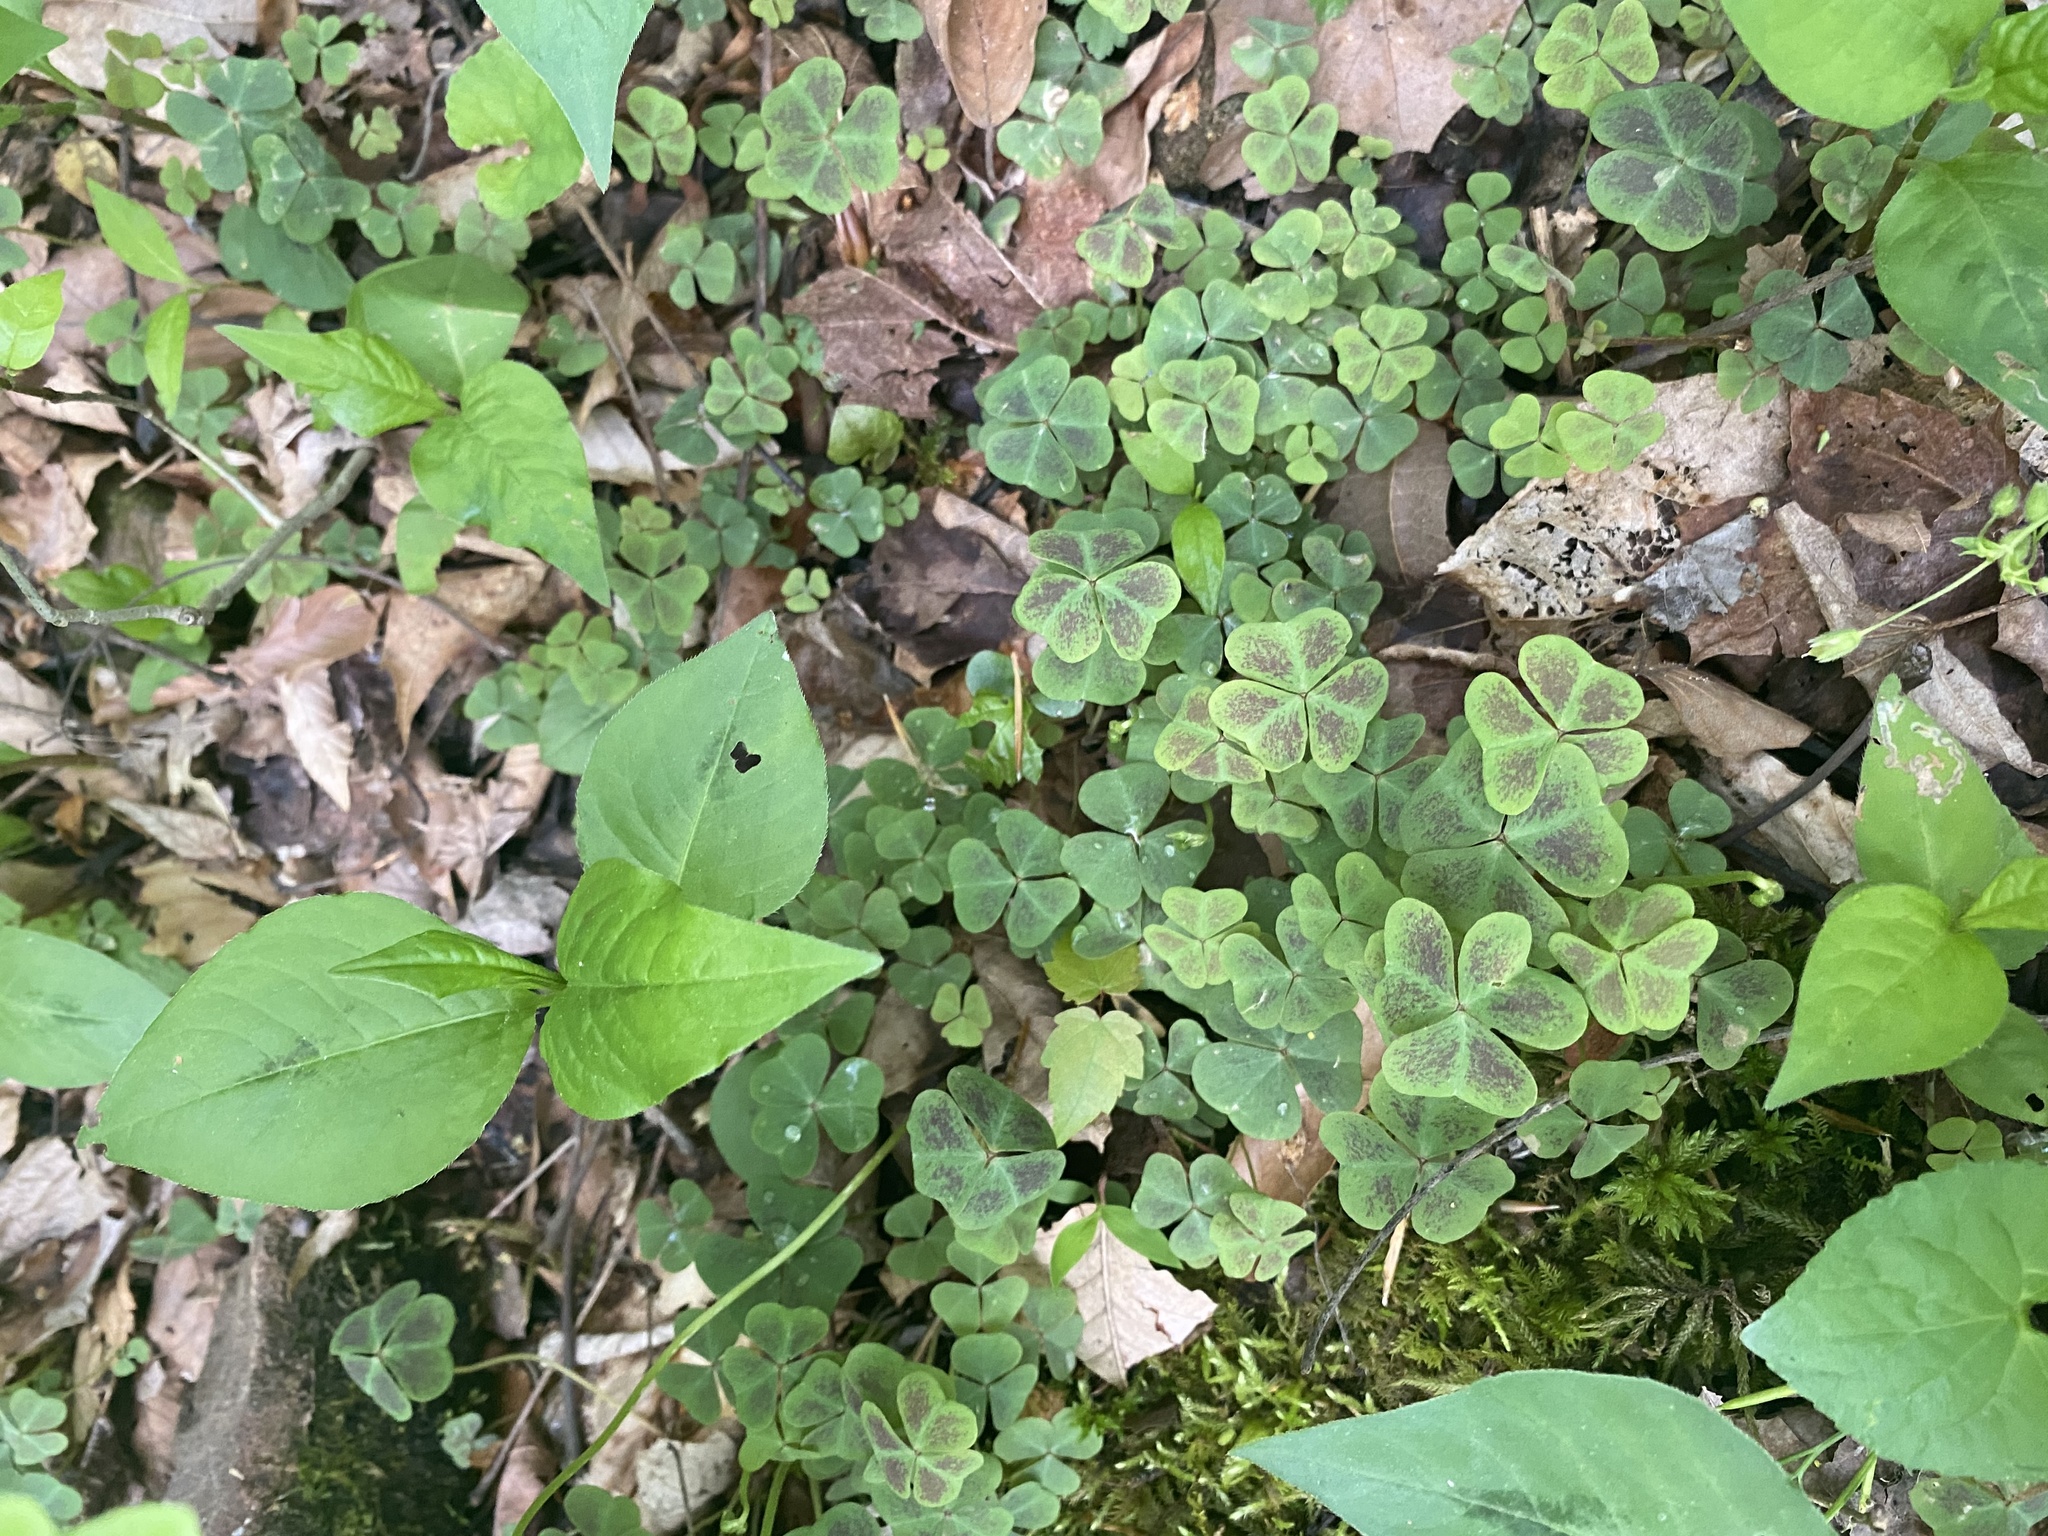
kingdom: Plantae
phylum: Tracheophyta
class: Magnoliopsida
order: Oxalidales
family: Oxalidaceae
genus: Oxalis
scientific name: Oxalis violacea
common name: Violet wood-sorrel
